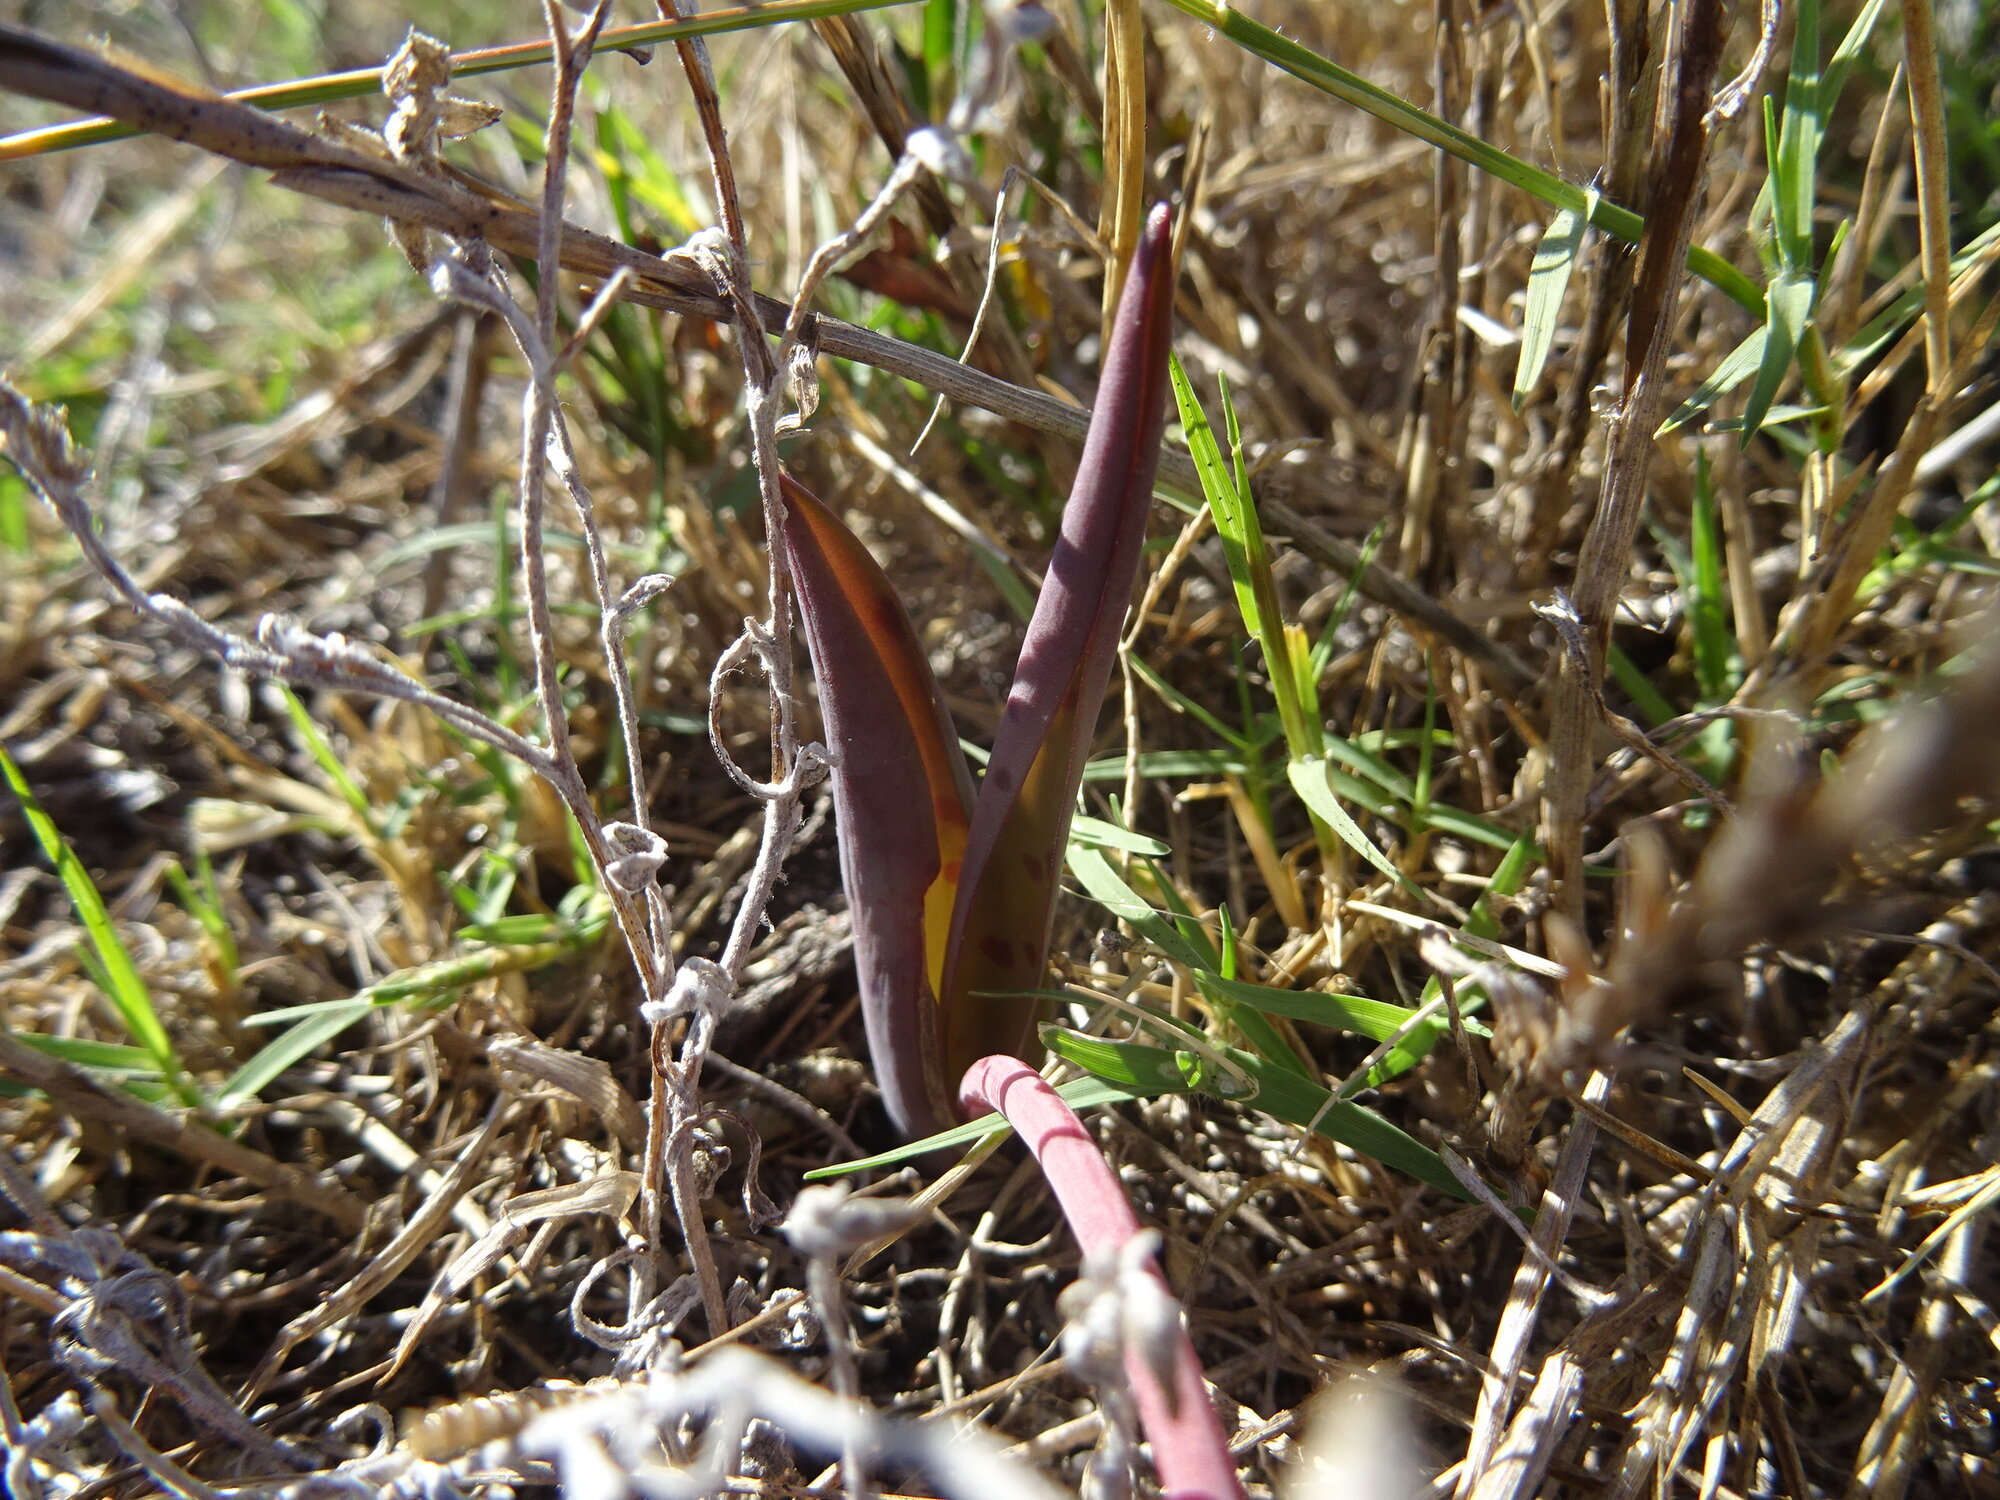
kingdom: Plantae
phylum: Tracheophyta
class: Liliopsida
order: Asparagales
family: Asparagaceae
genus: Lachenalia
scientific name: Lachenalia punctata
